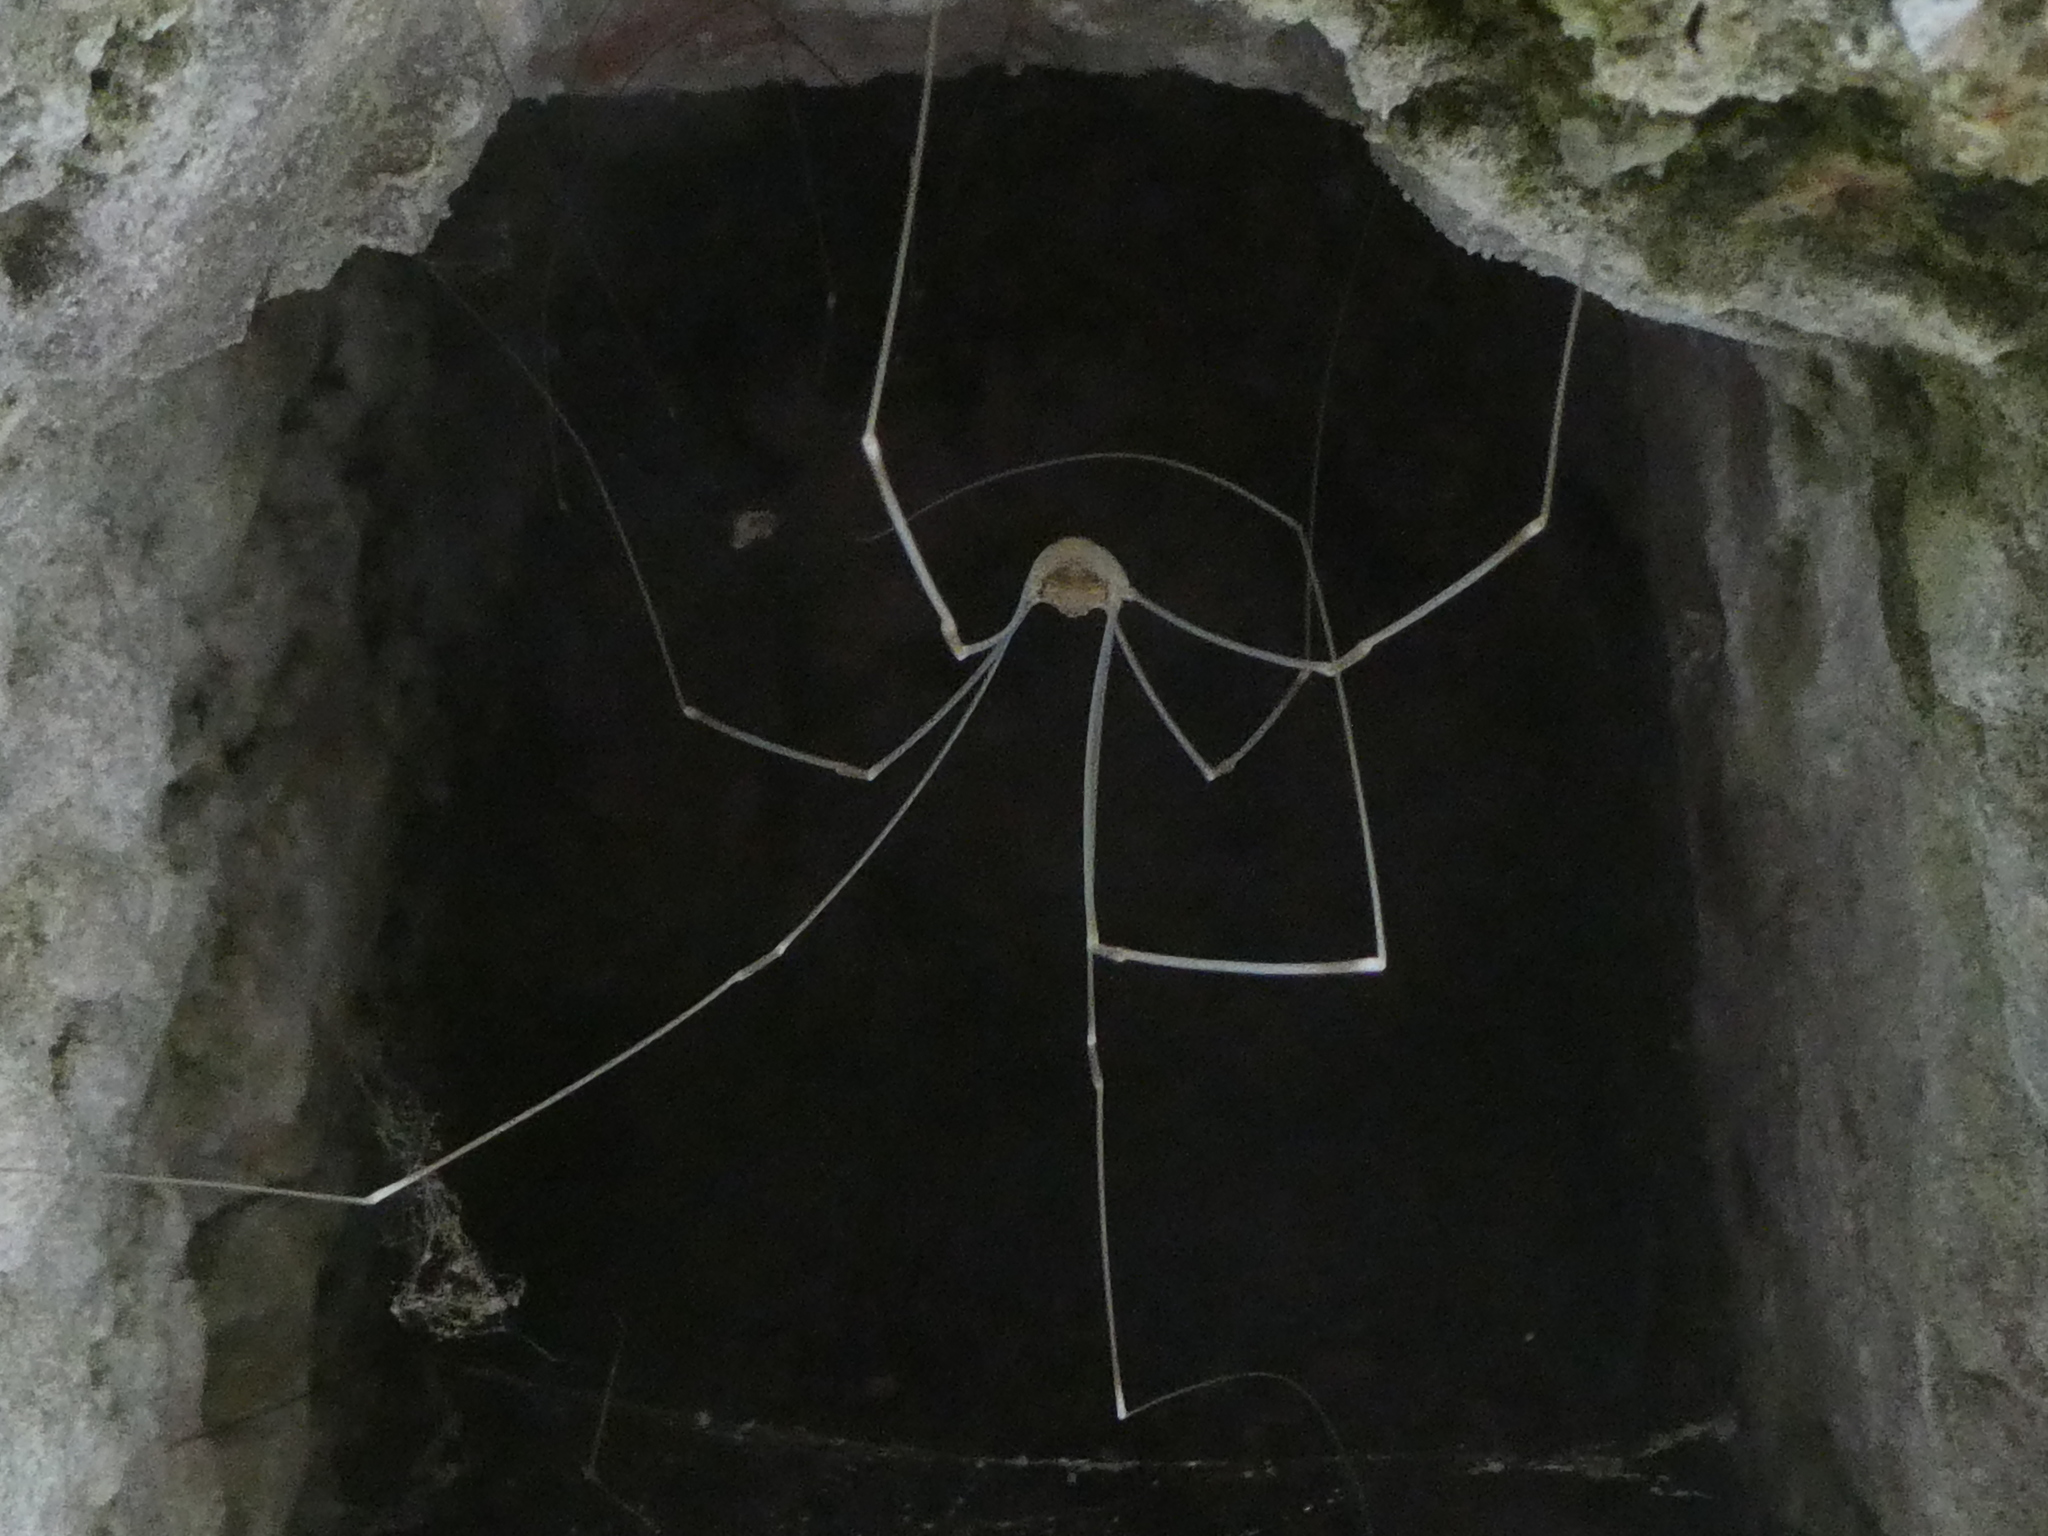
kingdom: Animalia
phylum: Arthropoda
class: Arachnida
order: Opiliones
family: Sclerosomatidae
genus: Leiobunum
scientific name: Leiobunum limbatum
